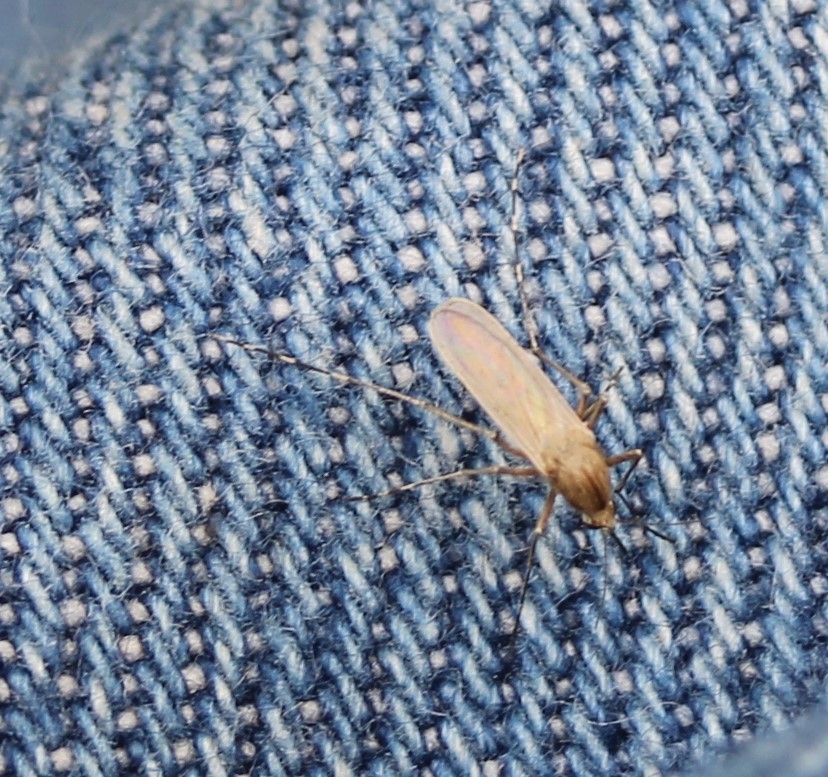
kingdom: Animalia
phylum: Arthropoda
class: Insecta
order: Diptera
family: Culicidae
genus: Aedes
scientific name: Aedes dorsalis
